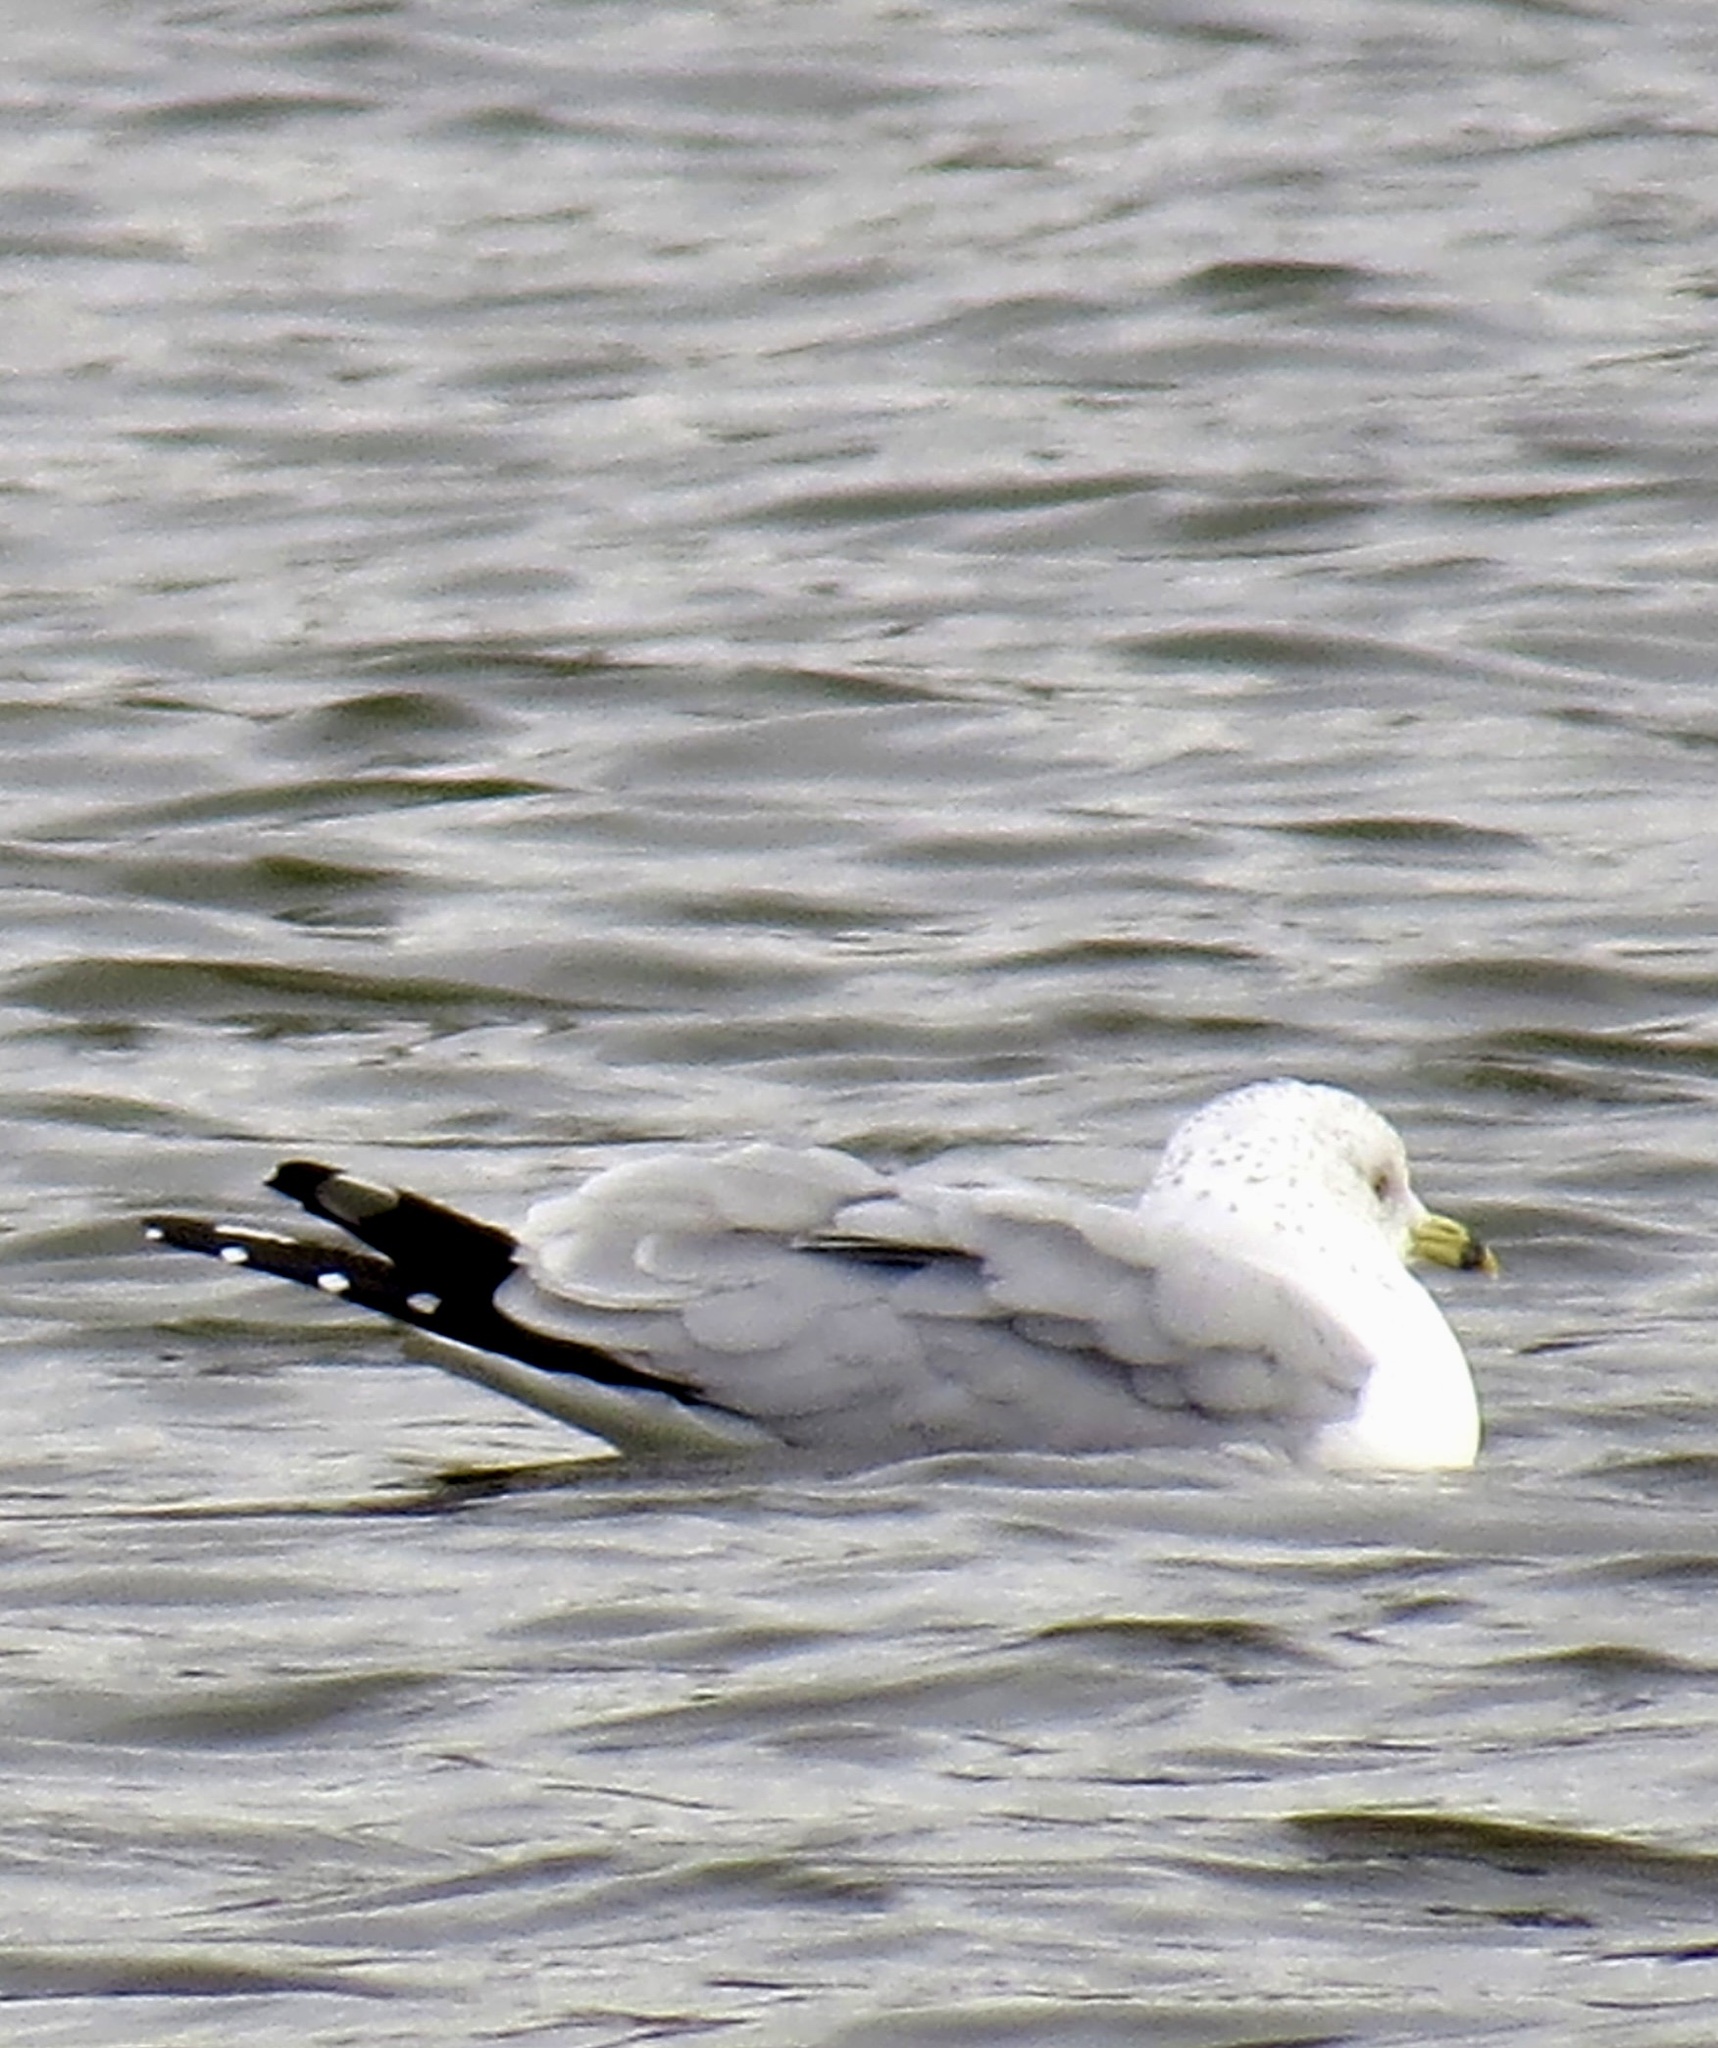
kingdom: Animalia
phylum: Chordata
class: Aves
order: Charadriiformes
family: Laridae
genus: Larus
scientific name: Larus delawarensis
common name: Ring-billed gull
